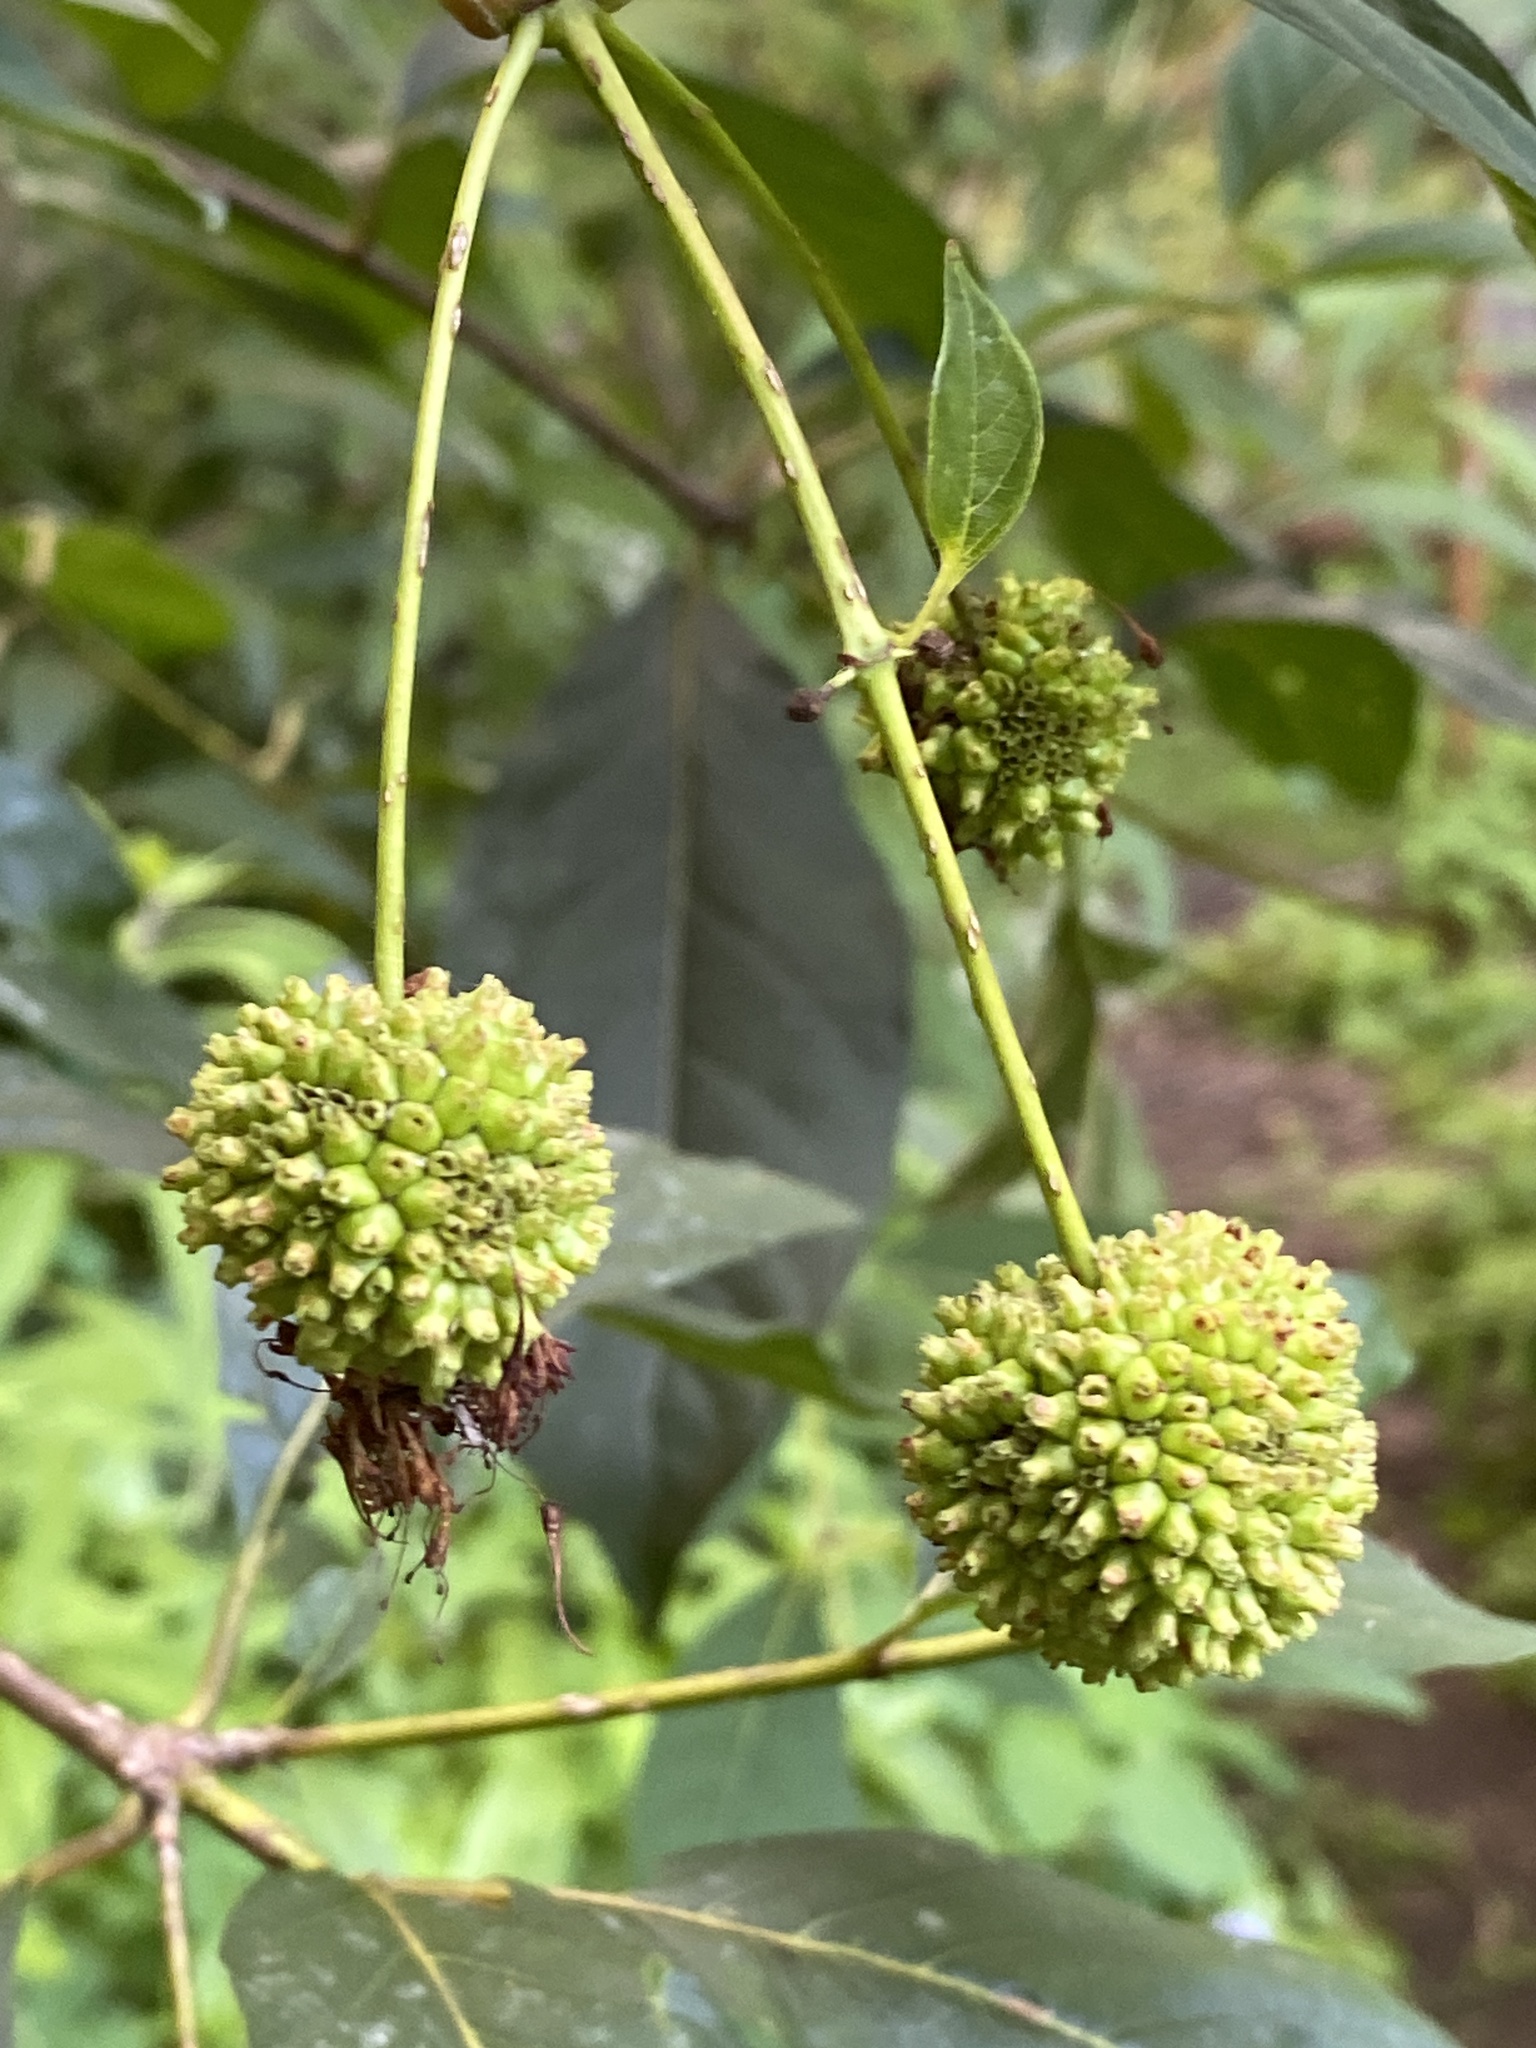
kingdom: Plantae
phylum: Tracheophyta
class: Magnoliopsida
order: Gentianales
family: Rubiaceae
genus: Cephalanthus
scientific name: Cephalanthus occidentalis
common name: Button-willow
